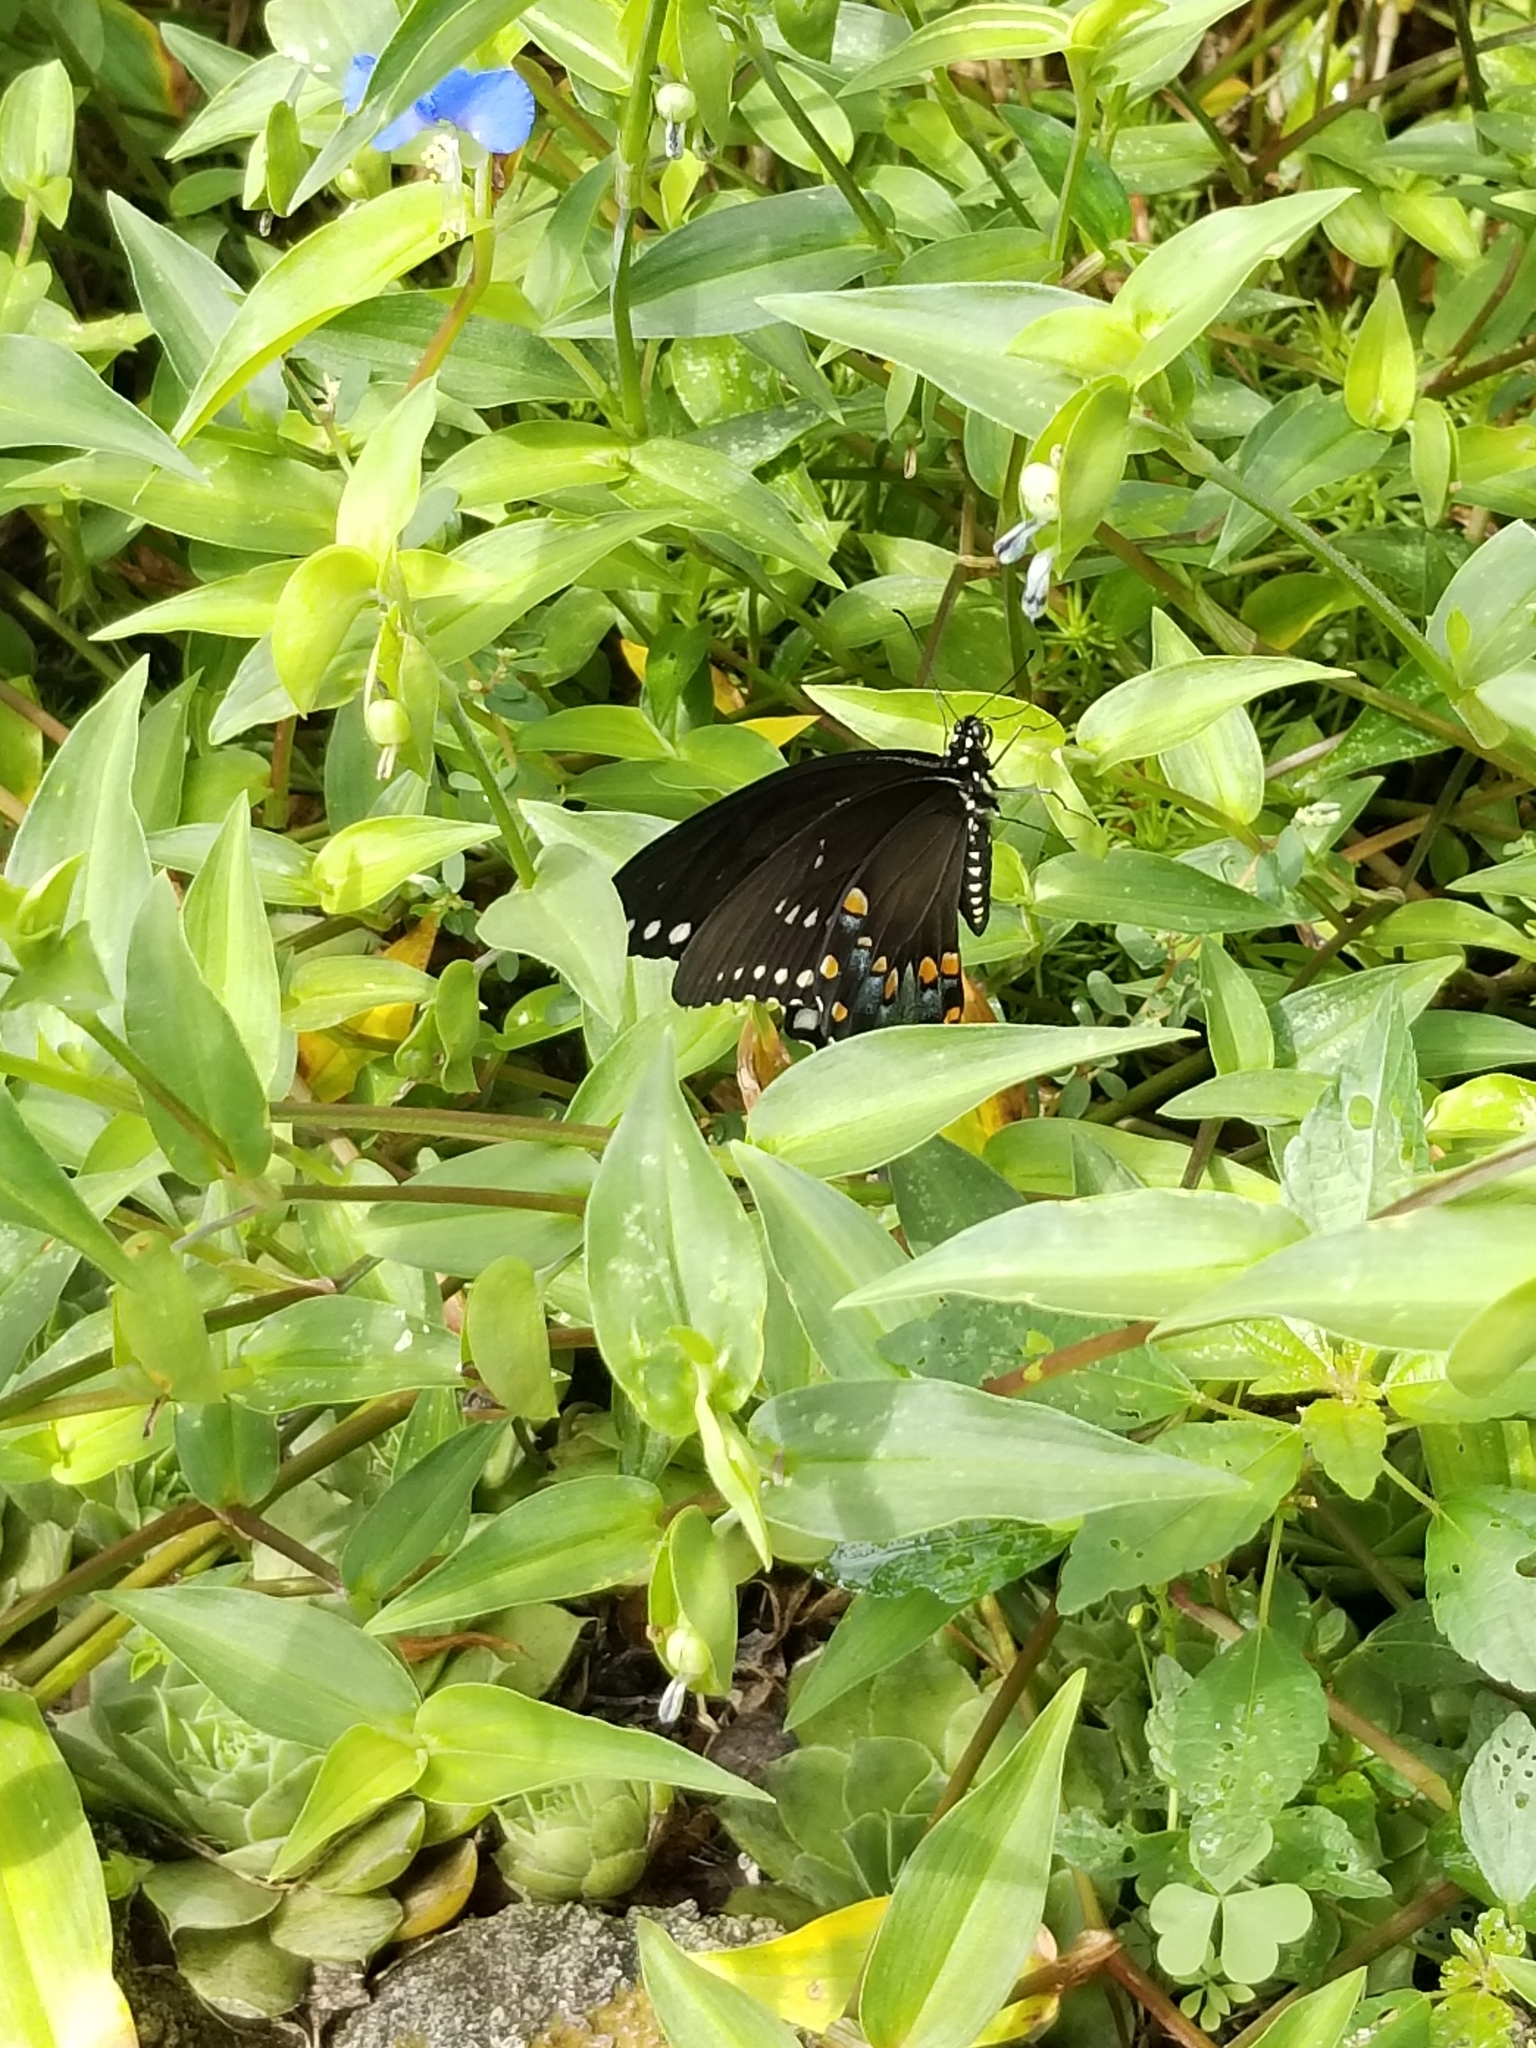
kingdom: Animalia
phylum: Arthropoda
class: Insecta
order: Lepidoptera
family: Papilionidae
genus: Papilio
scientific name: Papilio troilus
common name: Spicebush swallowtail
